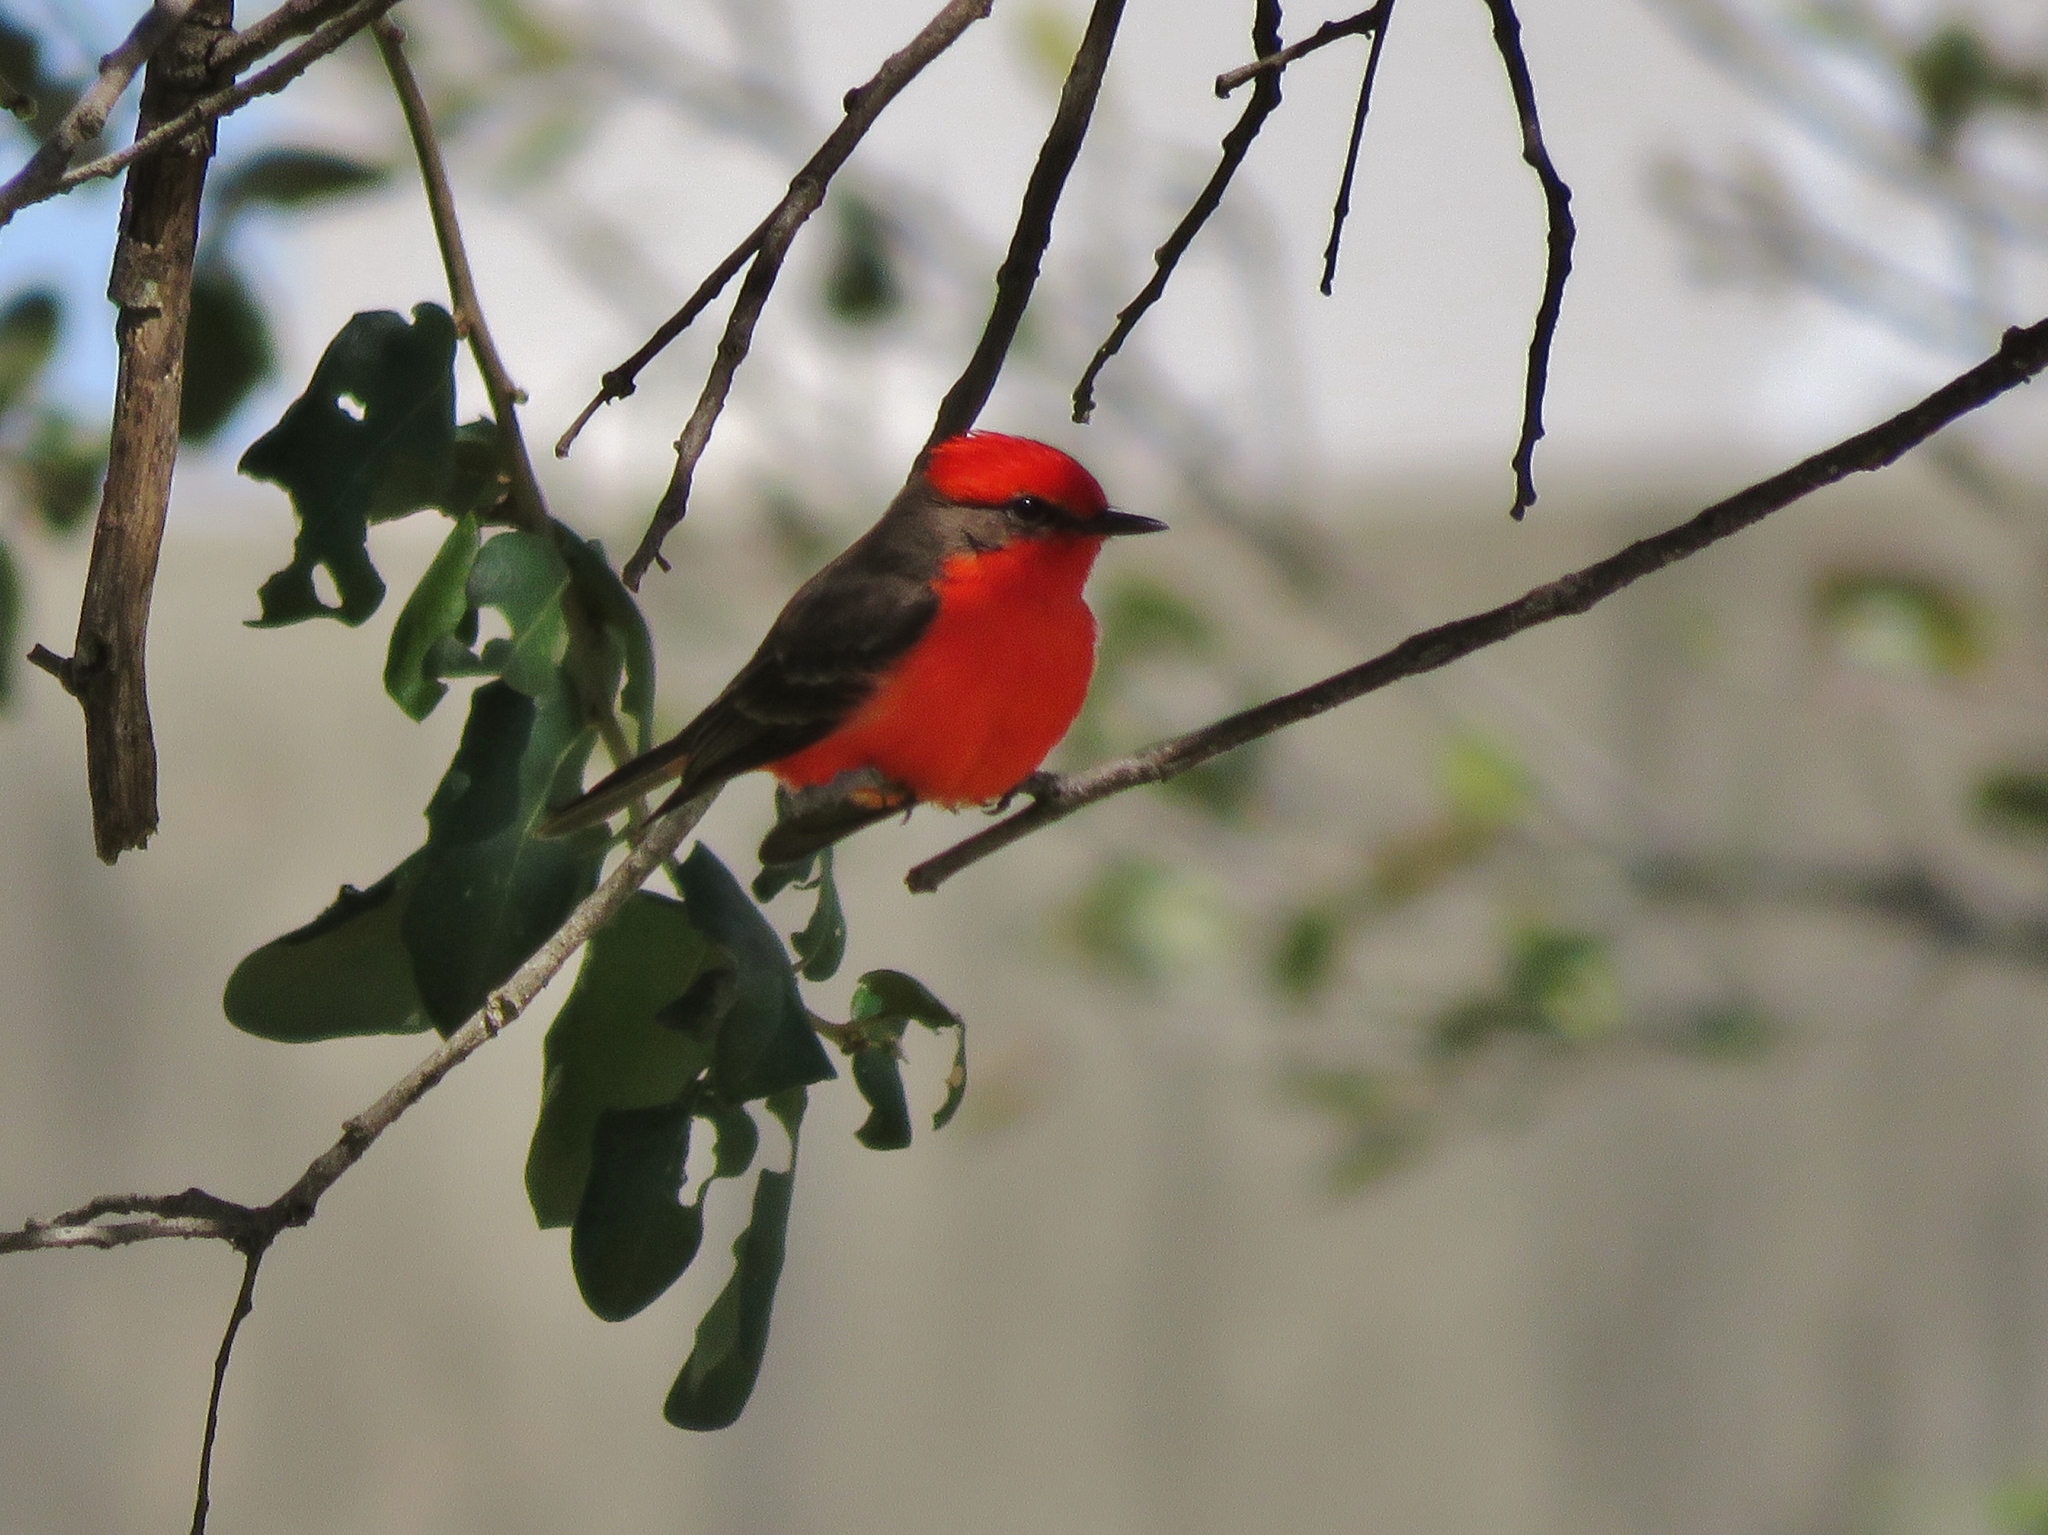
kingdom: Animalia
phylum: Chordata
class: Aves
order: Passeriformes
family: Tyrannidae
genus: Pyrocephalus
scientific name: Pyrocephalus rubinus
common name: Vermilion flycatcher
